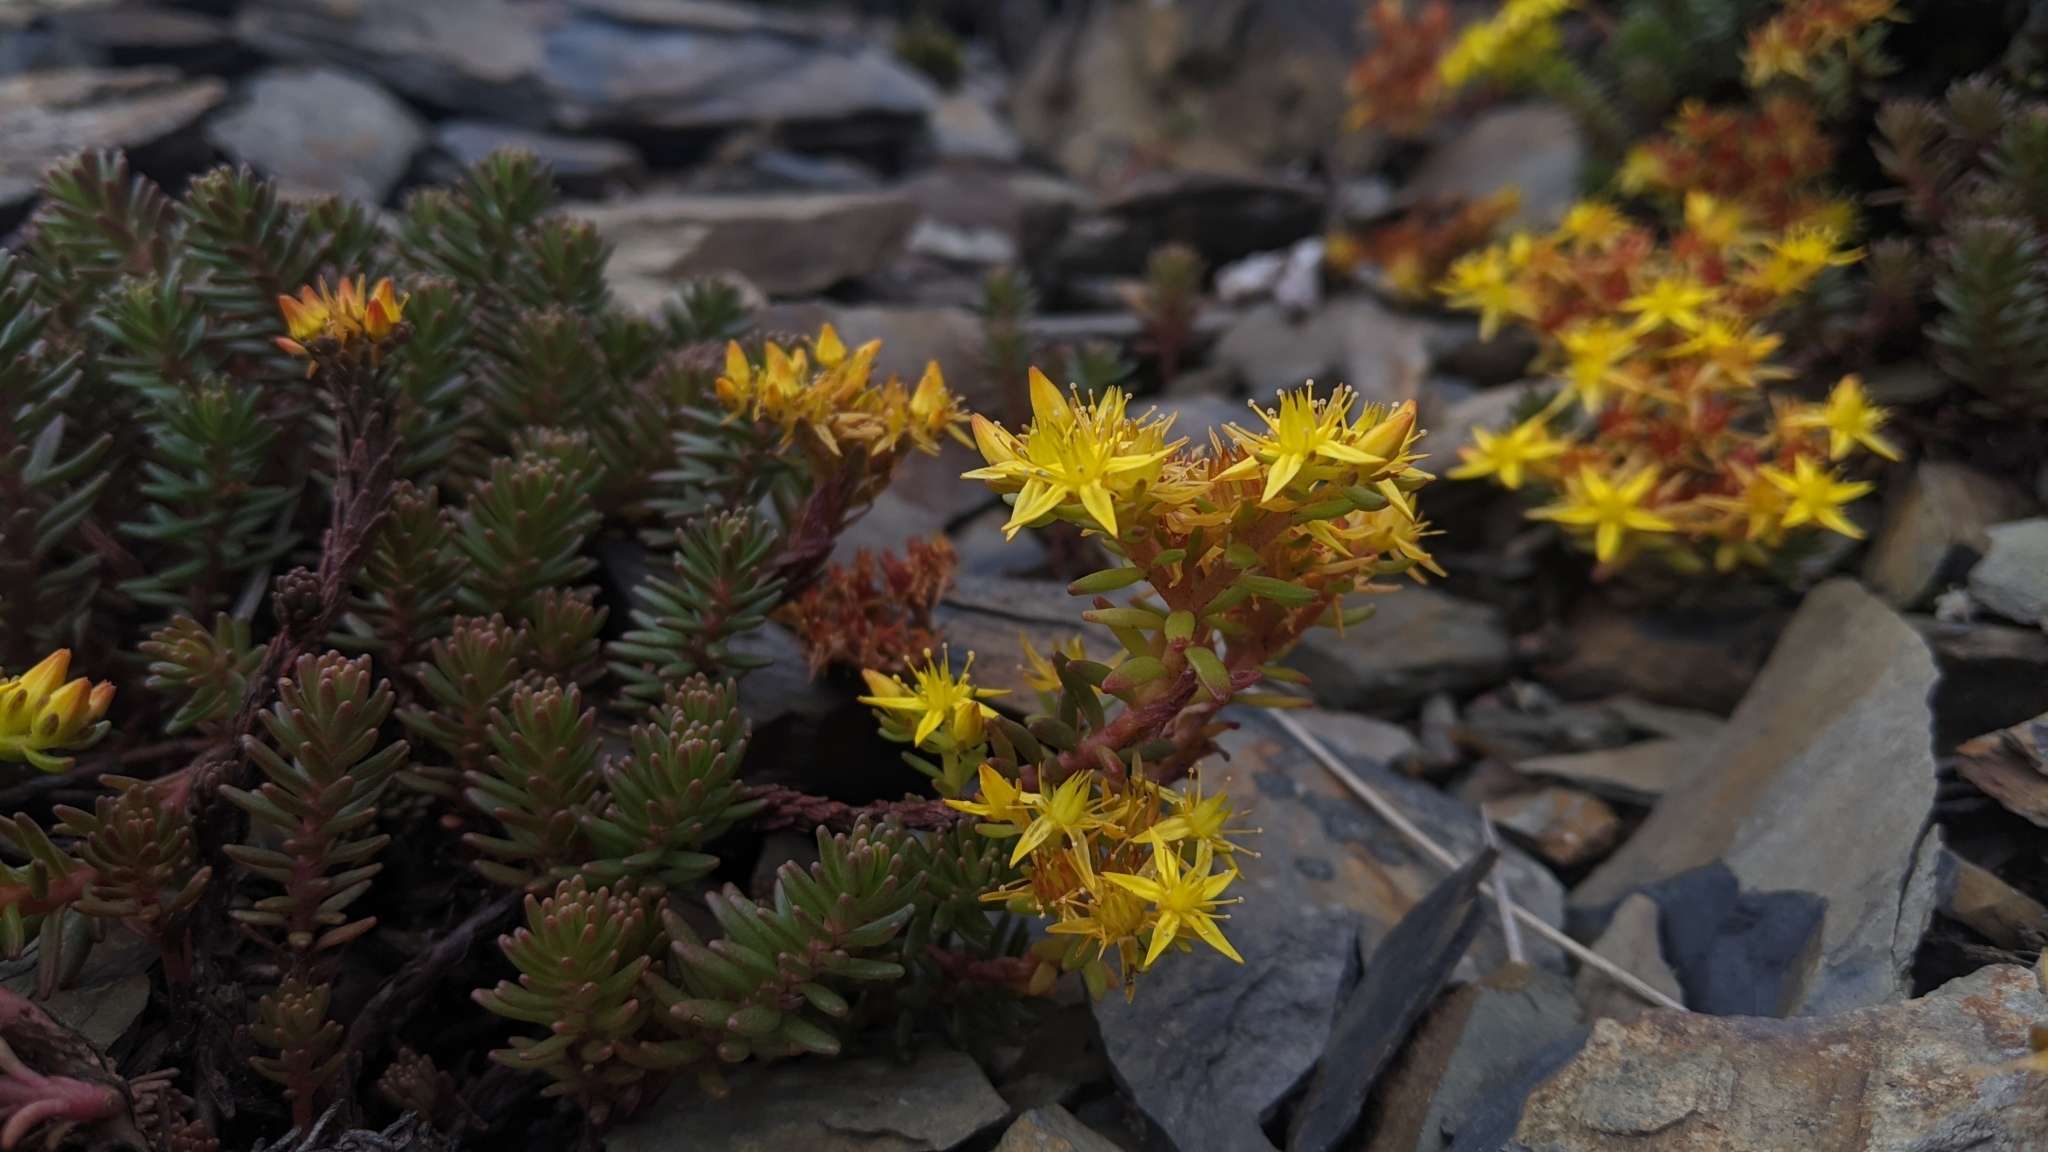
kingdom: Plantae
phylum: Tracheophyta
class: Magnoliopsida
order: Saxifragales
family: Crassulaceae
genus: Sedum
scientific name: Sedum morrisonense
